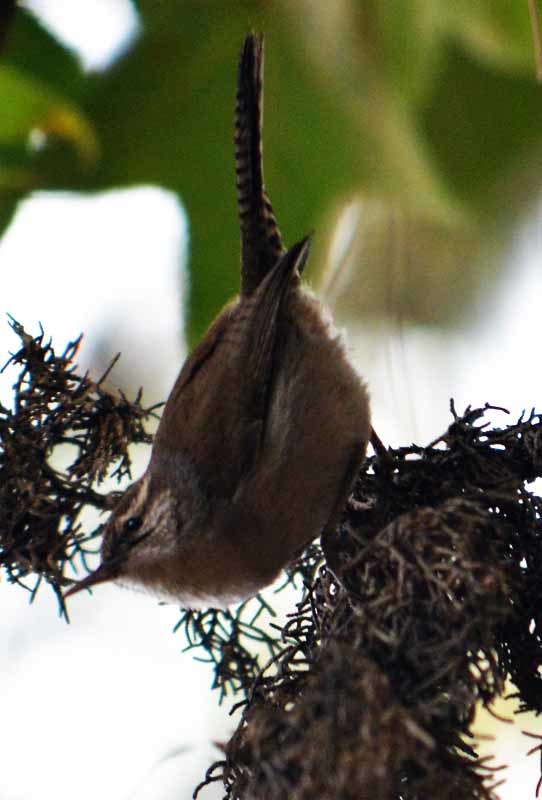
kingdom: Animalia
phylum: Chordata
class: Aves
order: Passeriformes
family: Troglodytidae
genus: Thryomanes
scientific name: Thryomanes bewickii
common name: Bewick's wren
